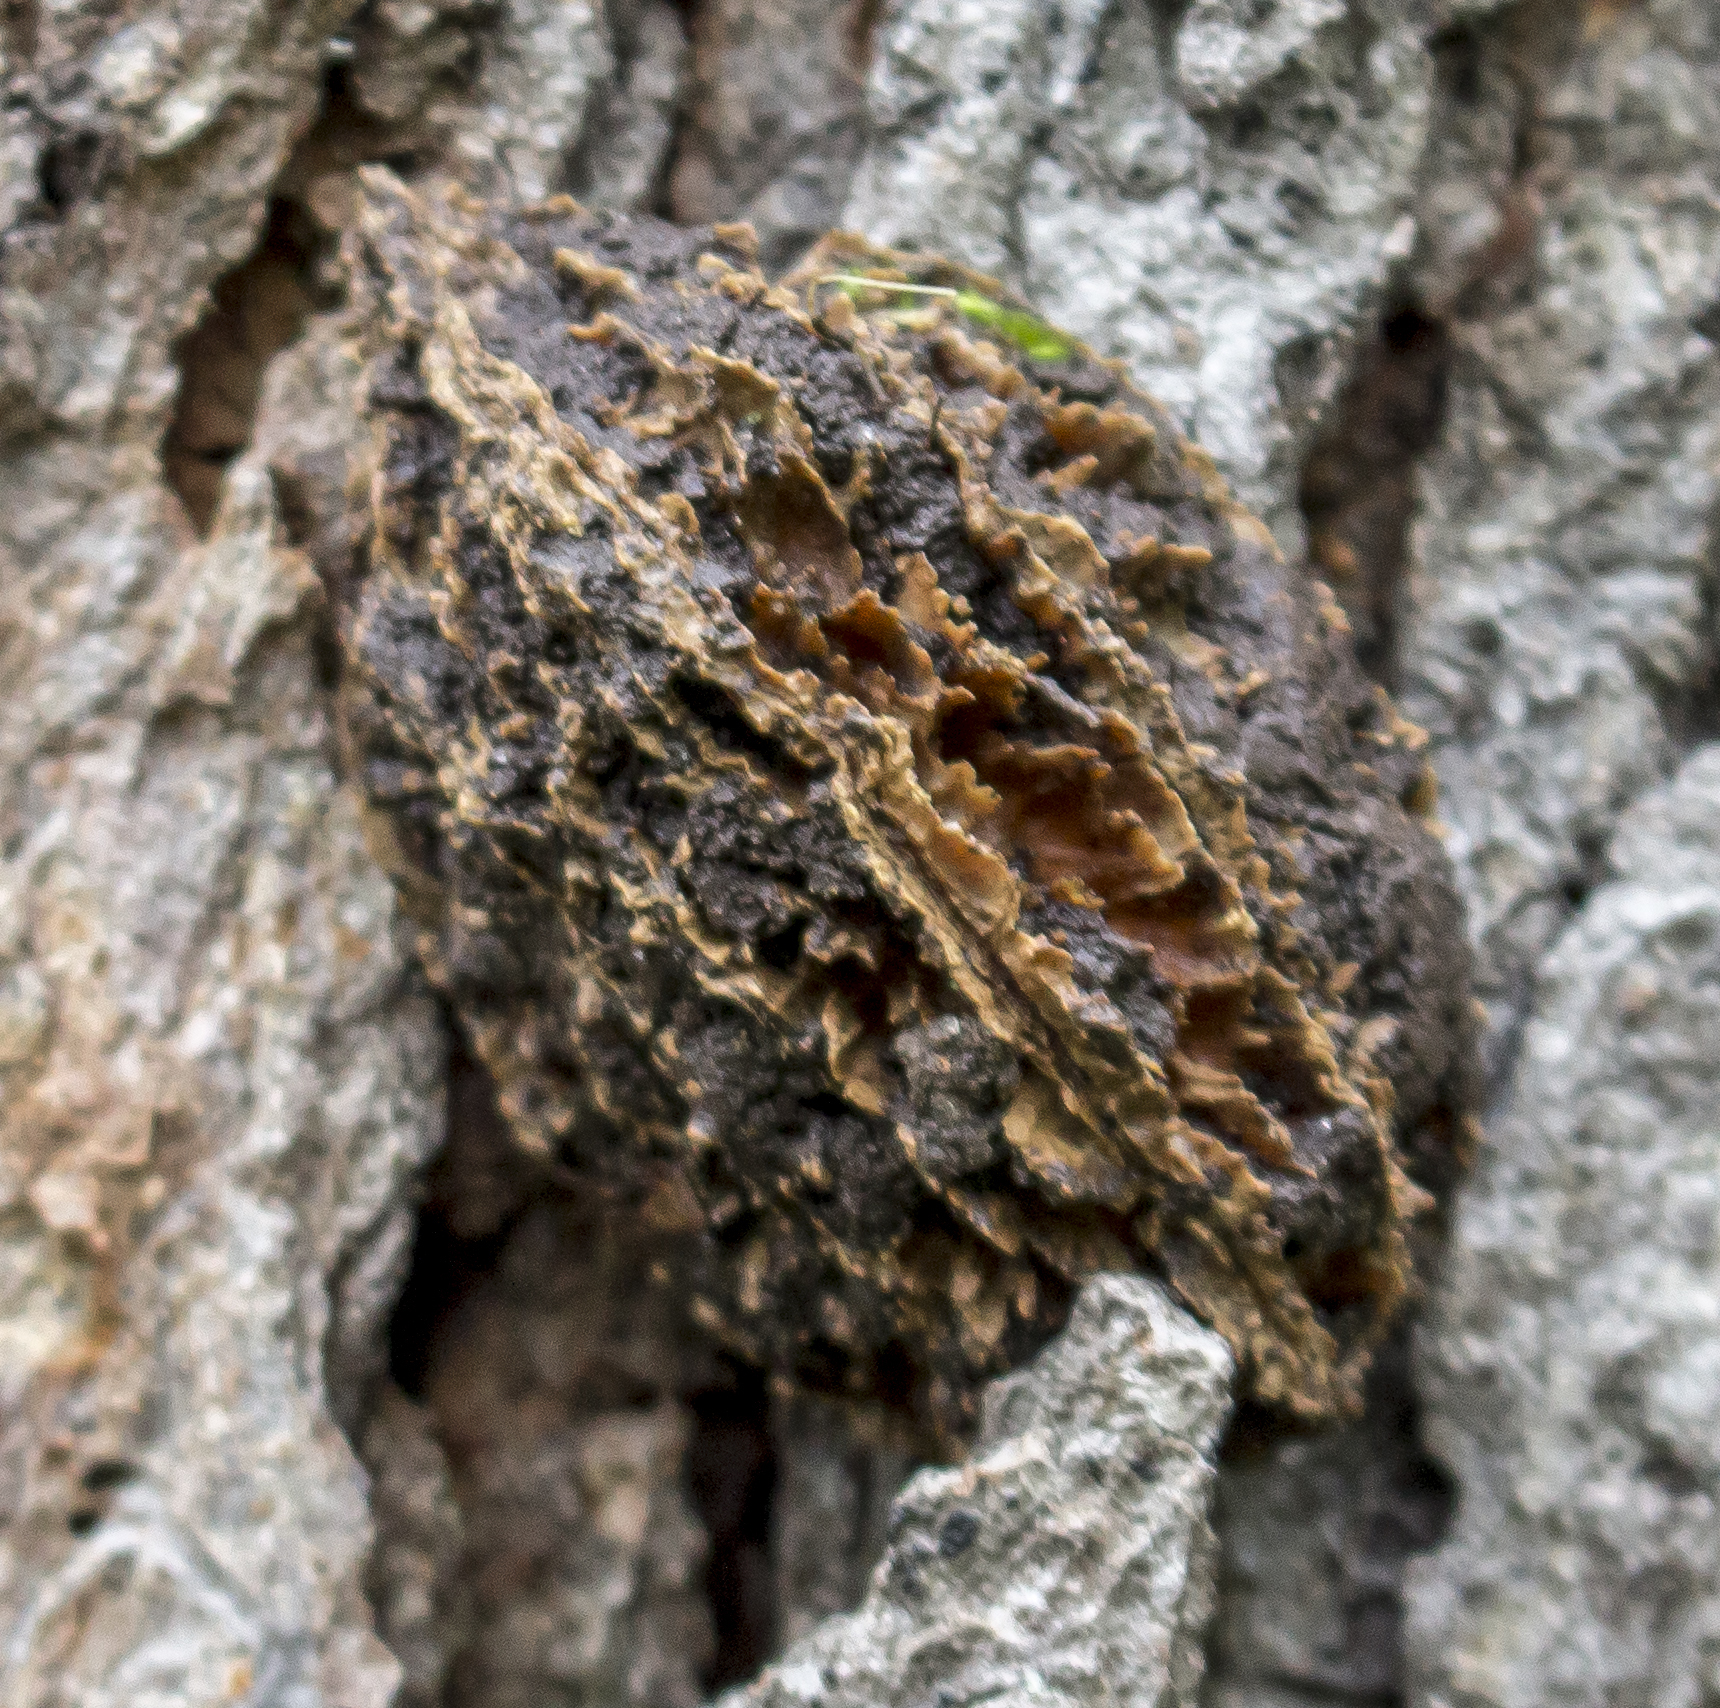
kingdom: Plantae
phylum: Tracheophyta
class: Magnoliopsida
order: Fagales
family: Juglandaceae
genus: Juglans
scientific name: Juglans cinerea
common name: Butternut
